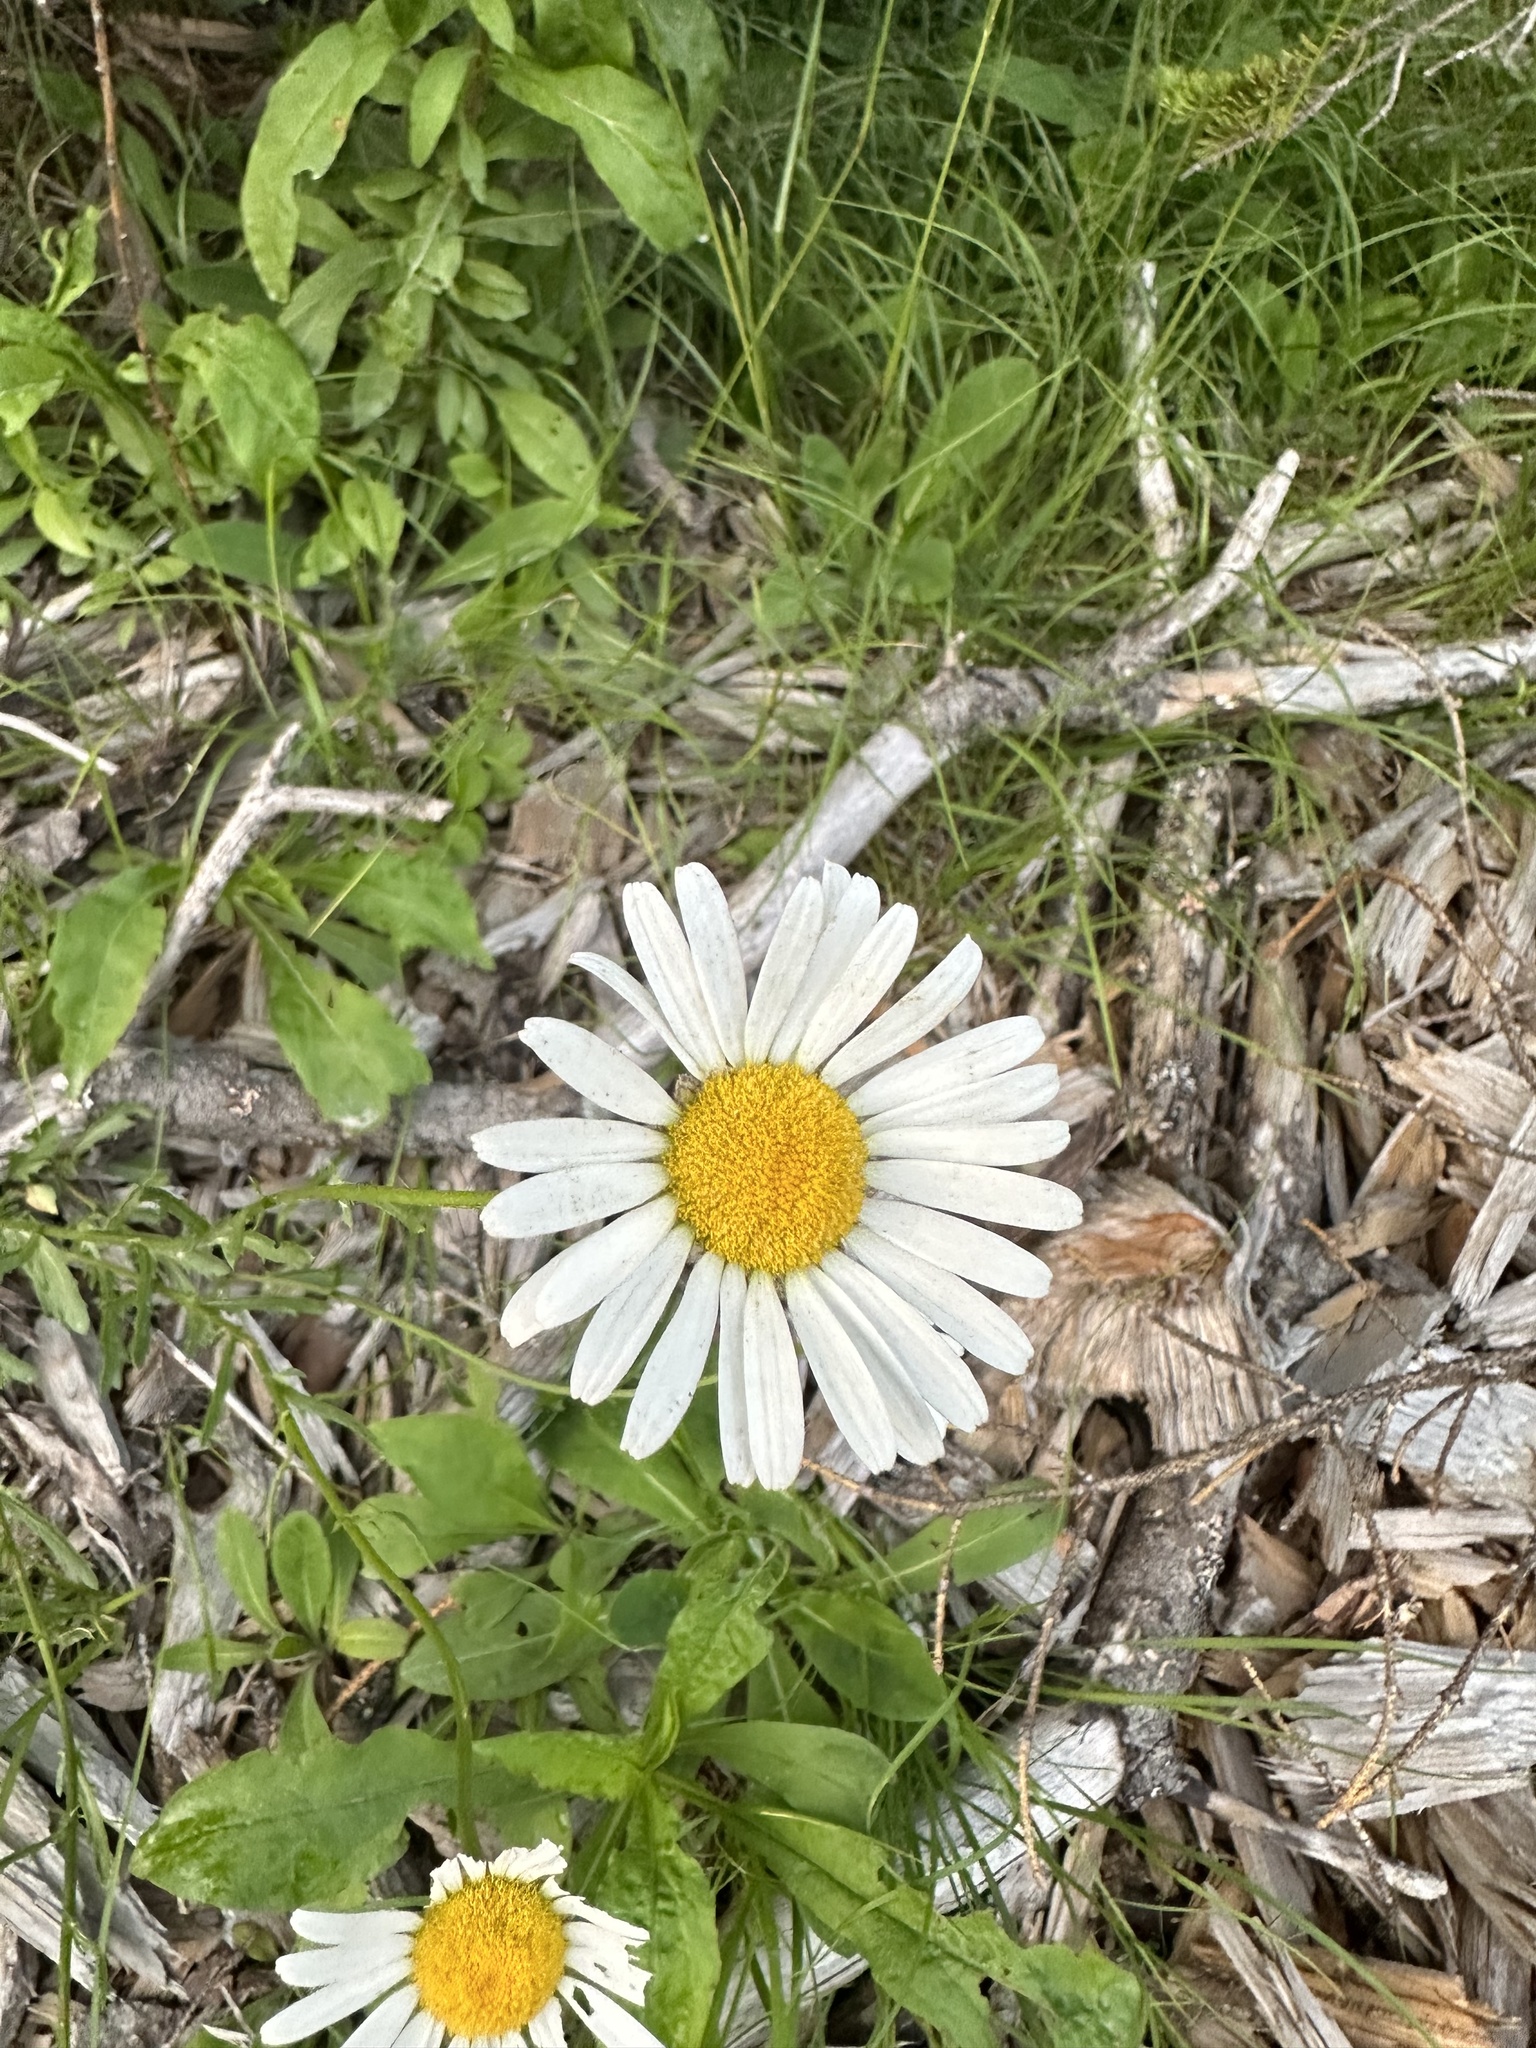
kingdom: Plantae
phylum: Tracheophyta
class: Magnoliopsida
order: Asterales
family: Asteraceae
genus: Leucanthemum
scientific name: Leucanthemum vulgare
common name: Oxeye daisy
